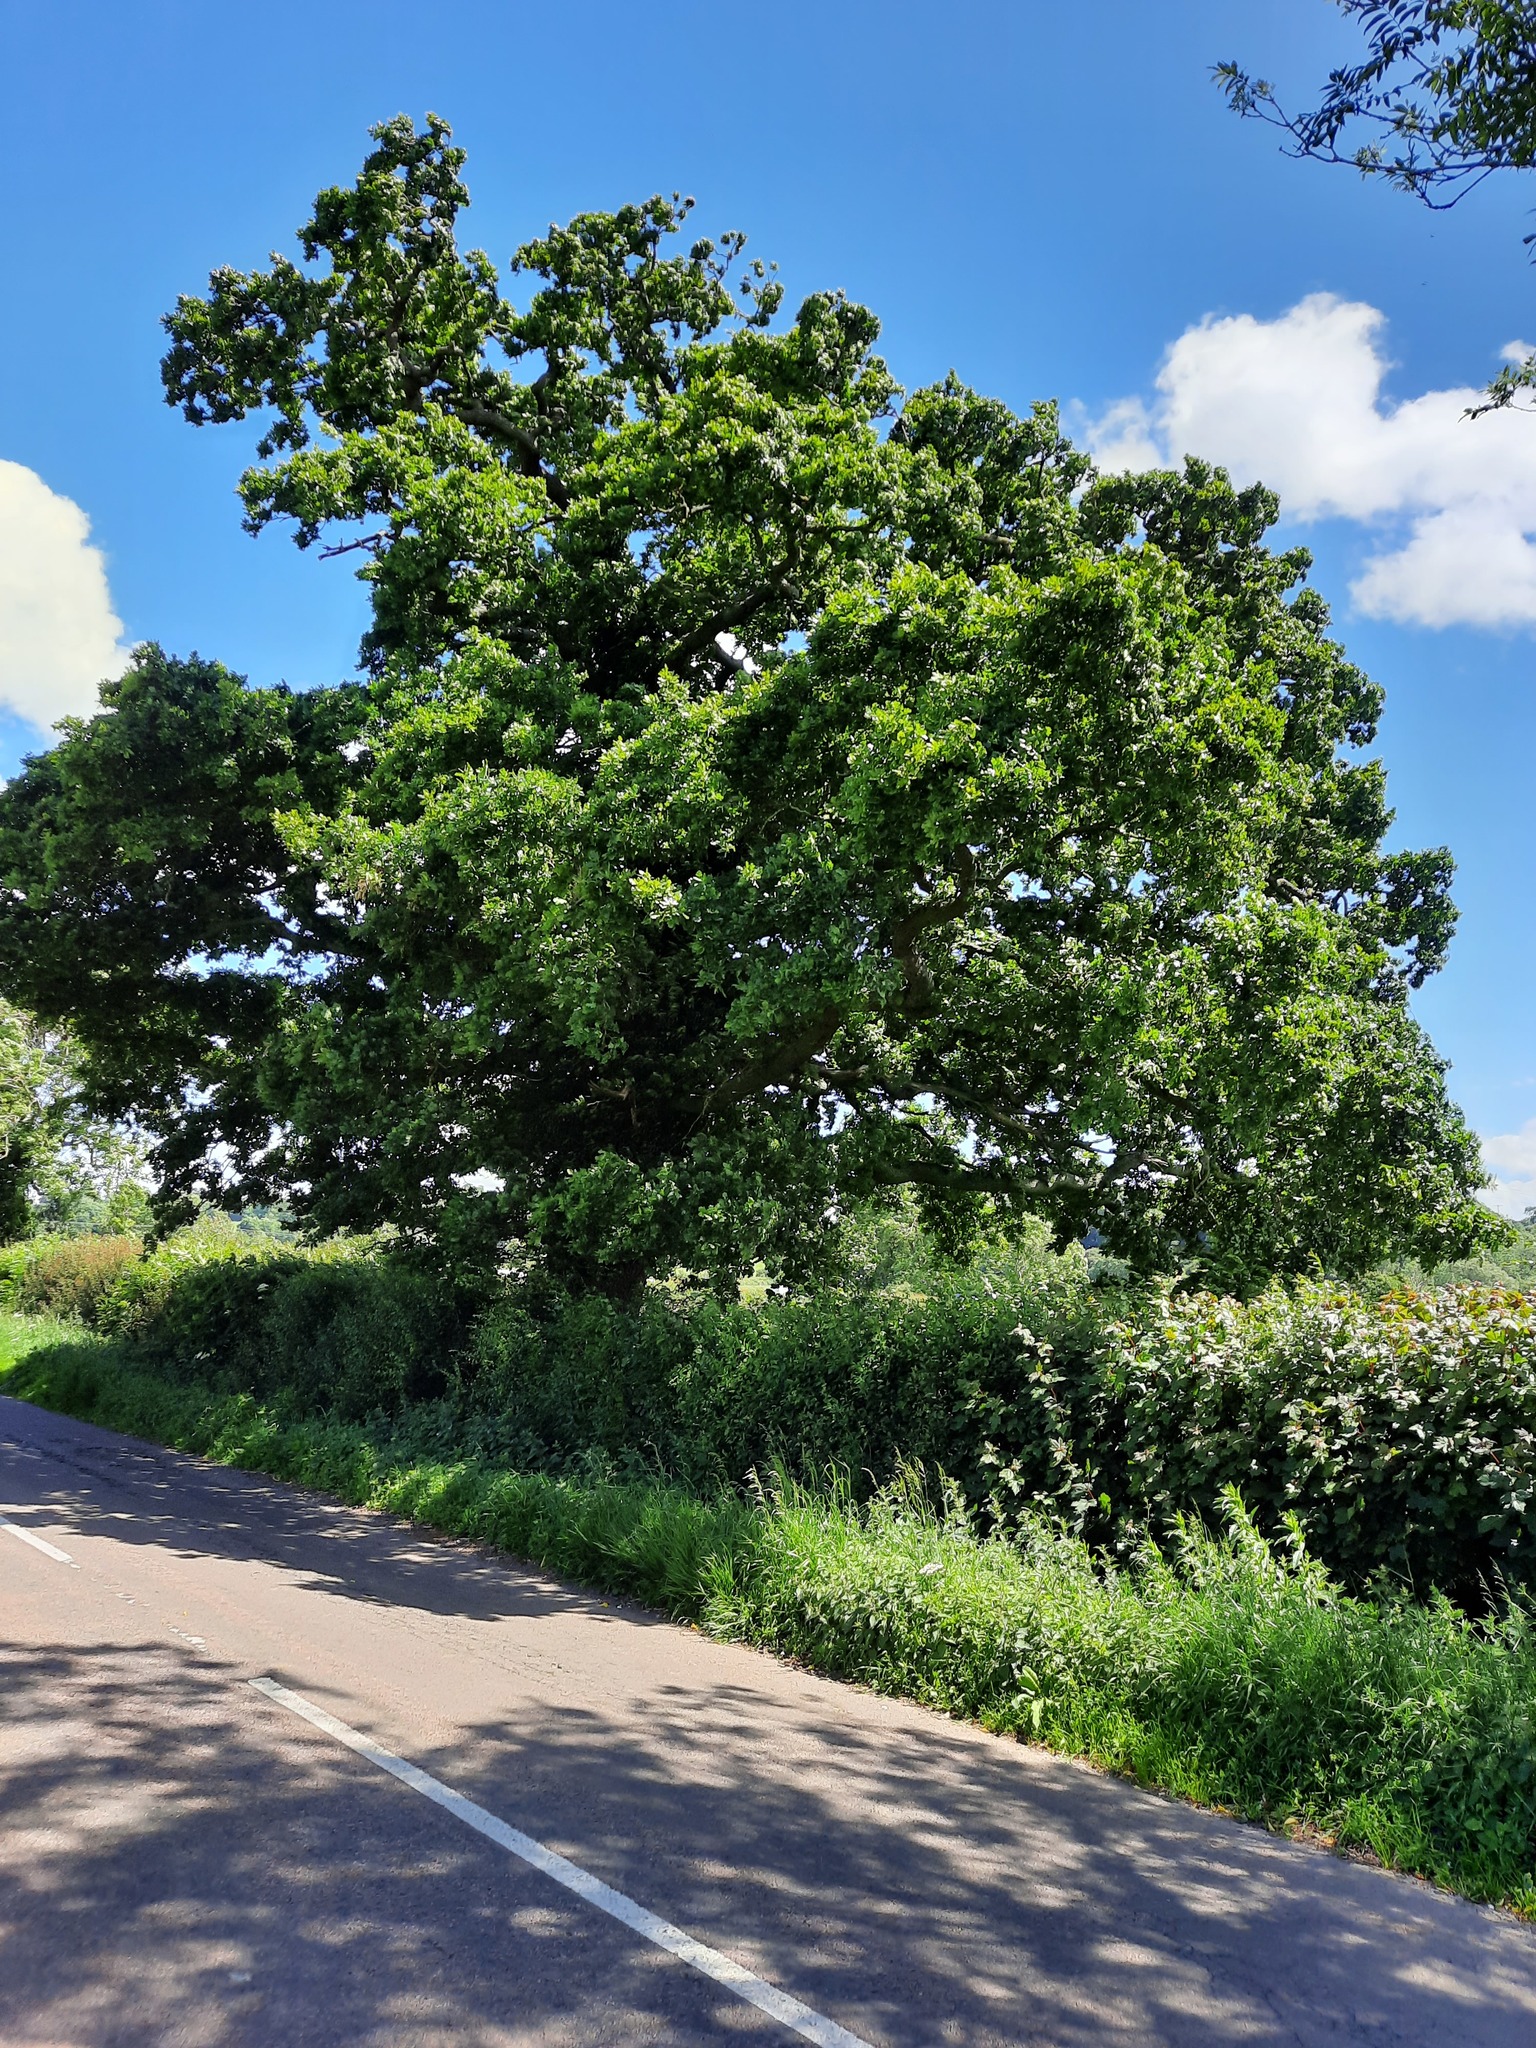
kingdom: Plantae
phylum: Tracheophyta
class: Magnoliopsida
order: Fagales
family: Fagaceae
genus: Quercus
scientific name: Quercus robur
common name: Pedunculate oak
